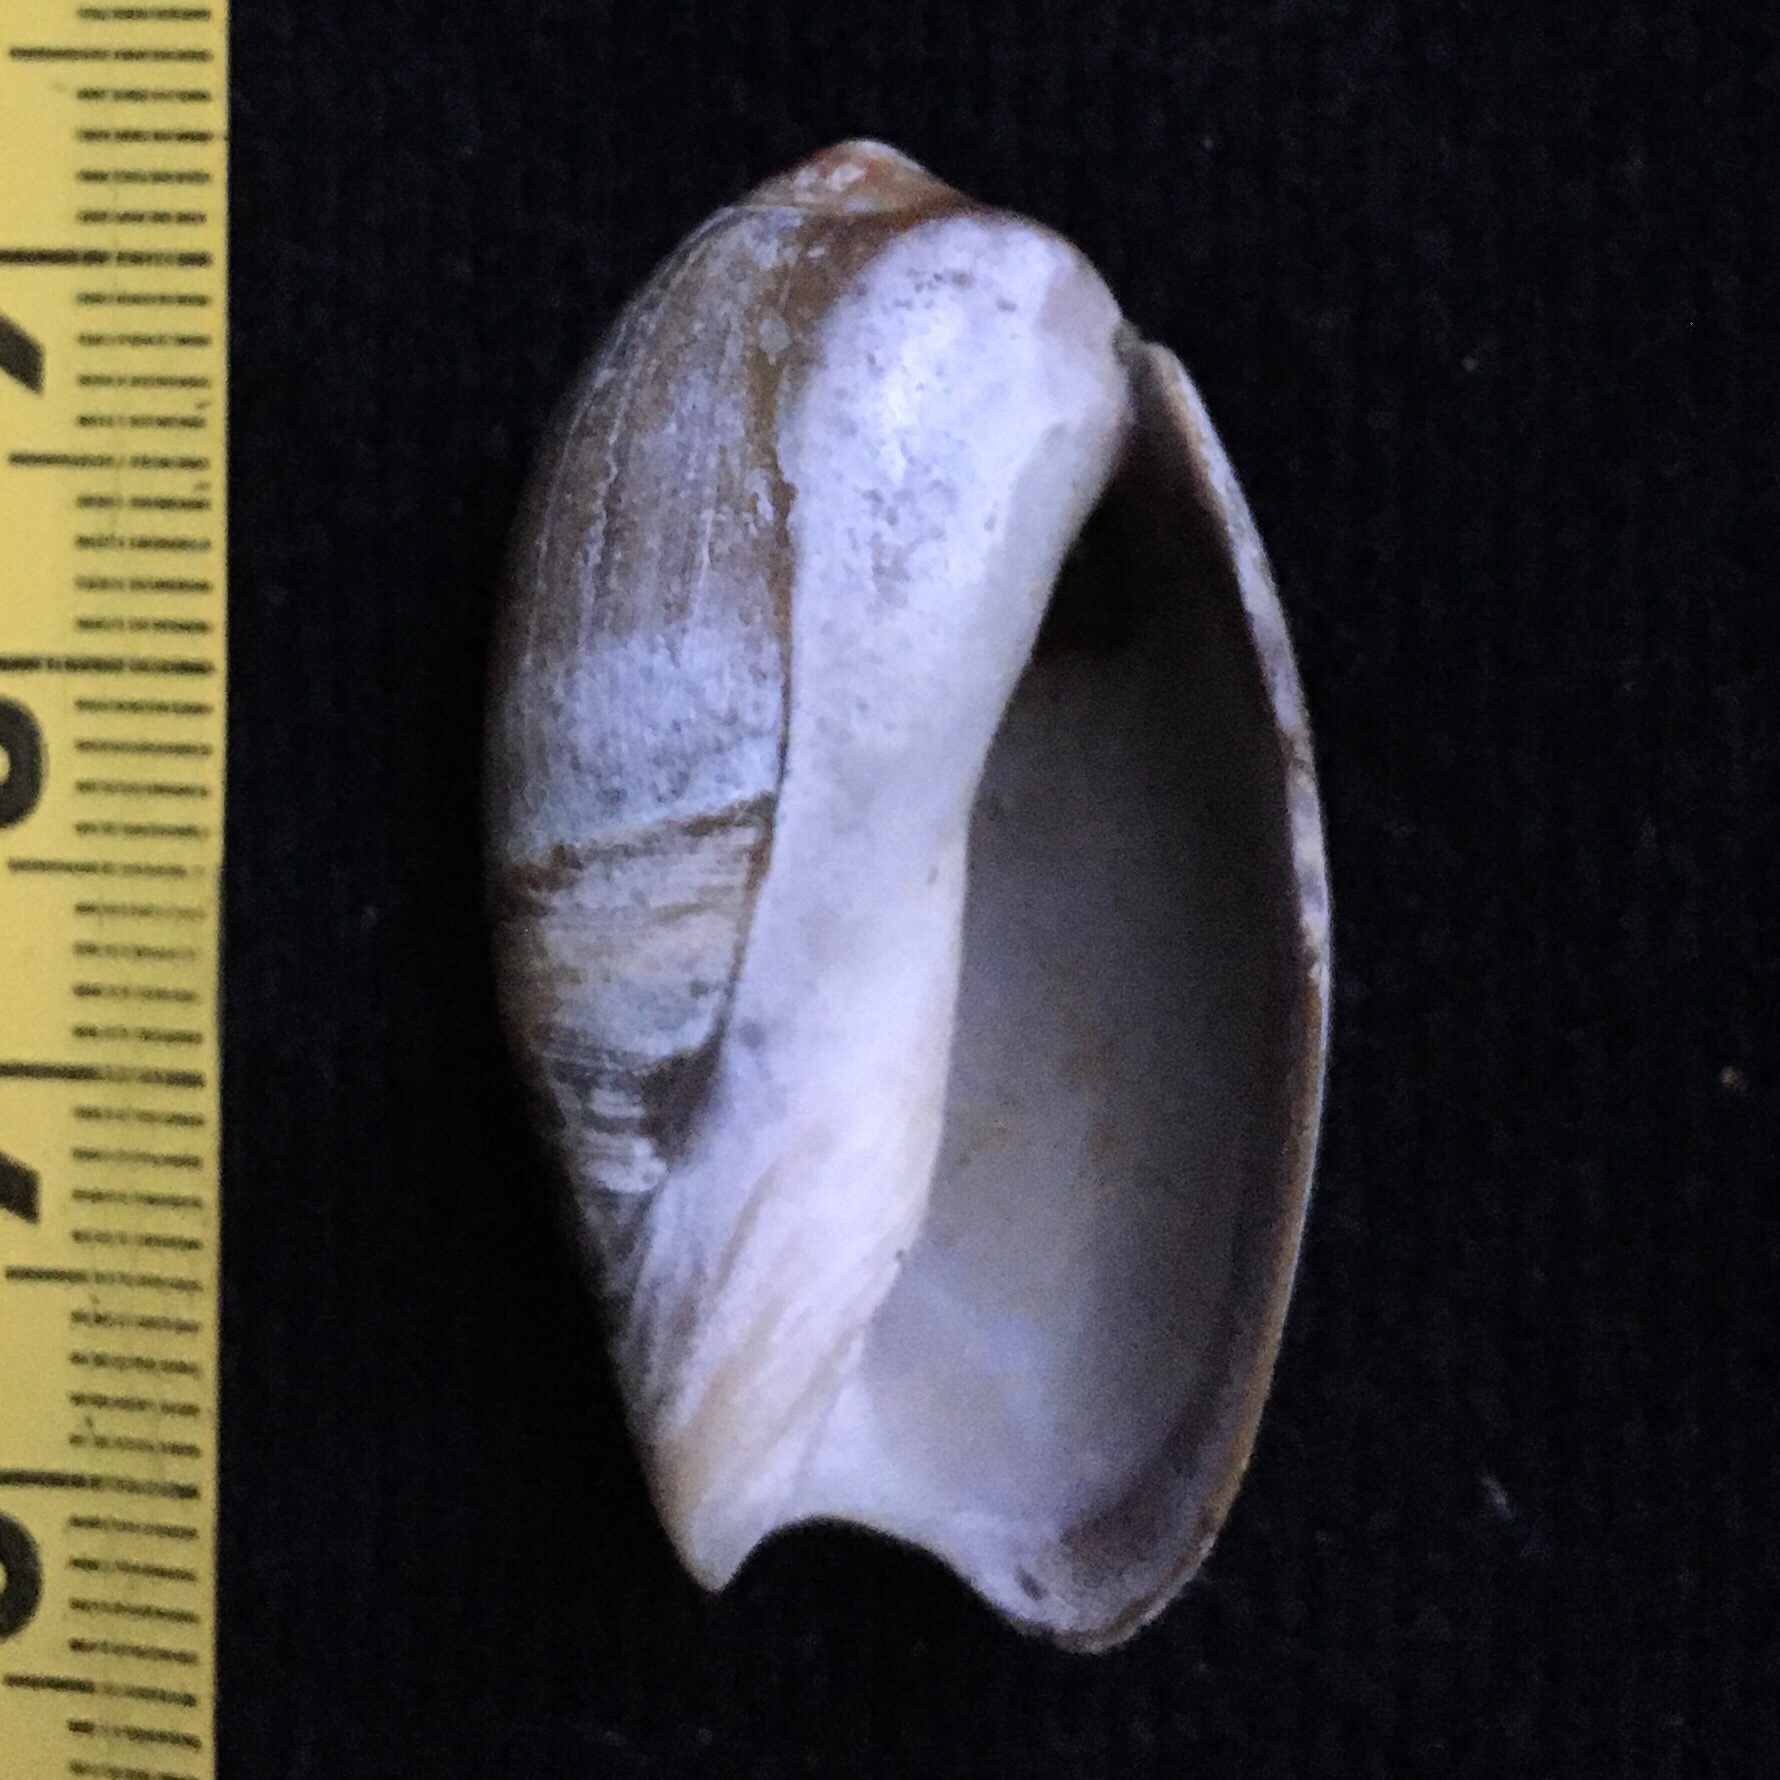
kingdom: Animalia
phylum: Mollusca
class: Gastropoda
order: Neogastropoda
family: Olividae
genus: Olivancillaria
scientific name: Olivancillaria carcellesi
